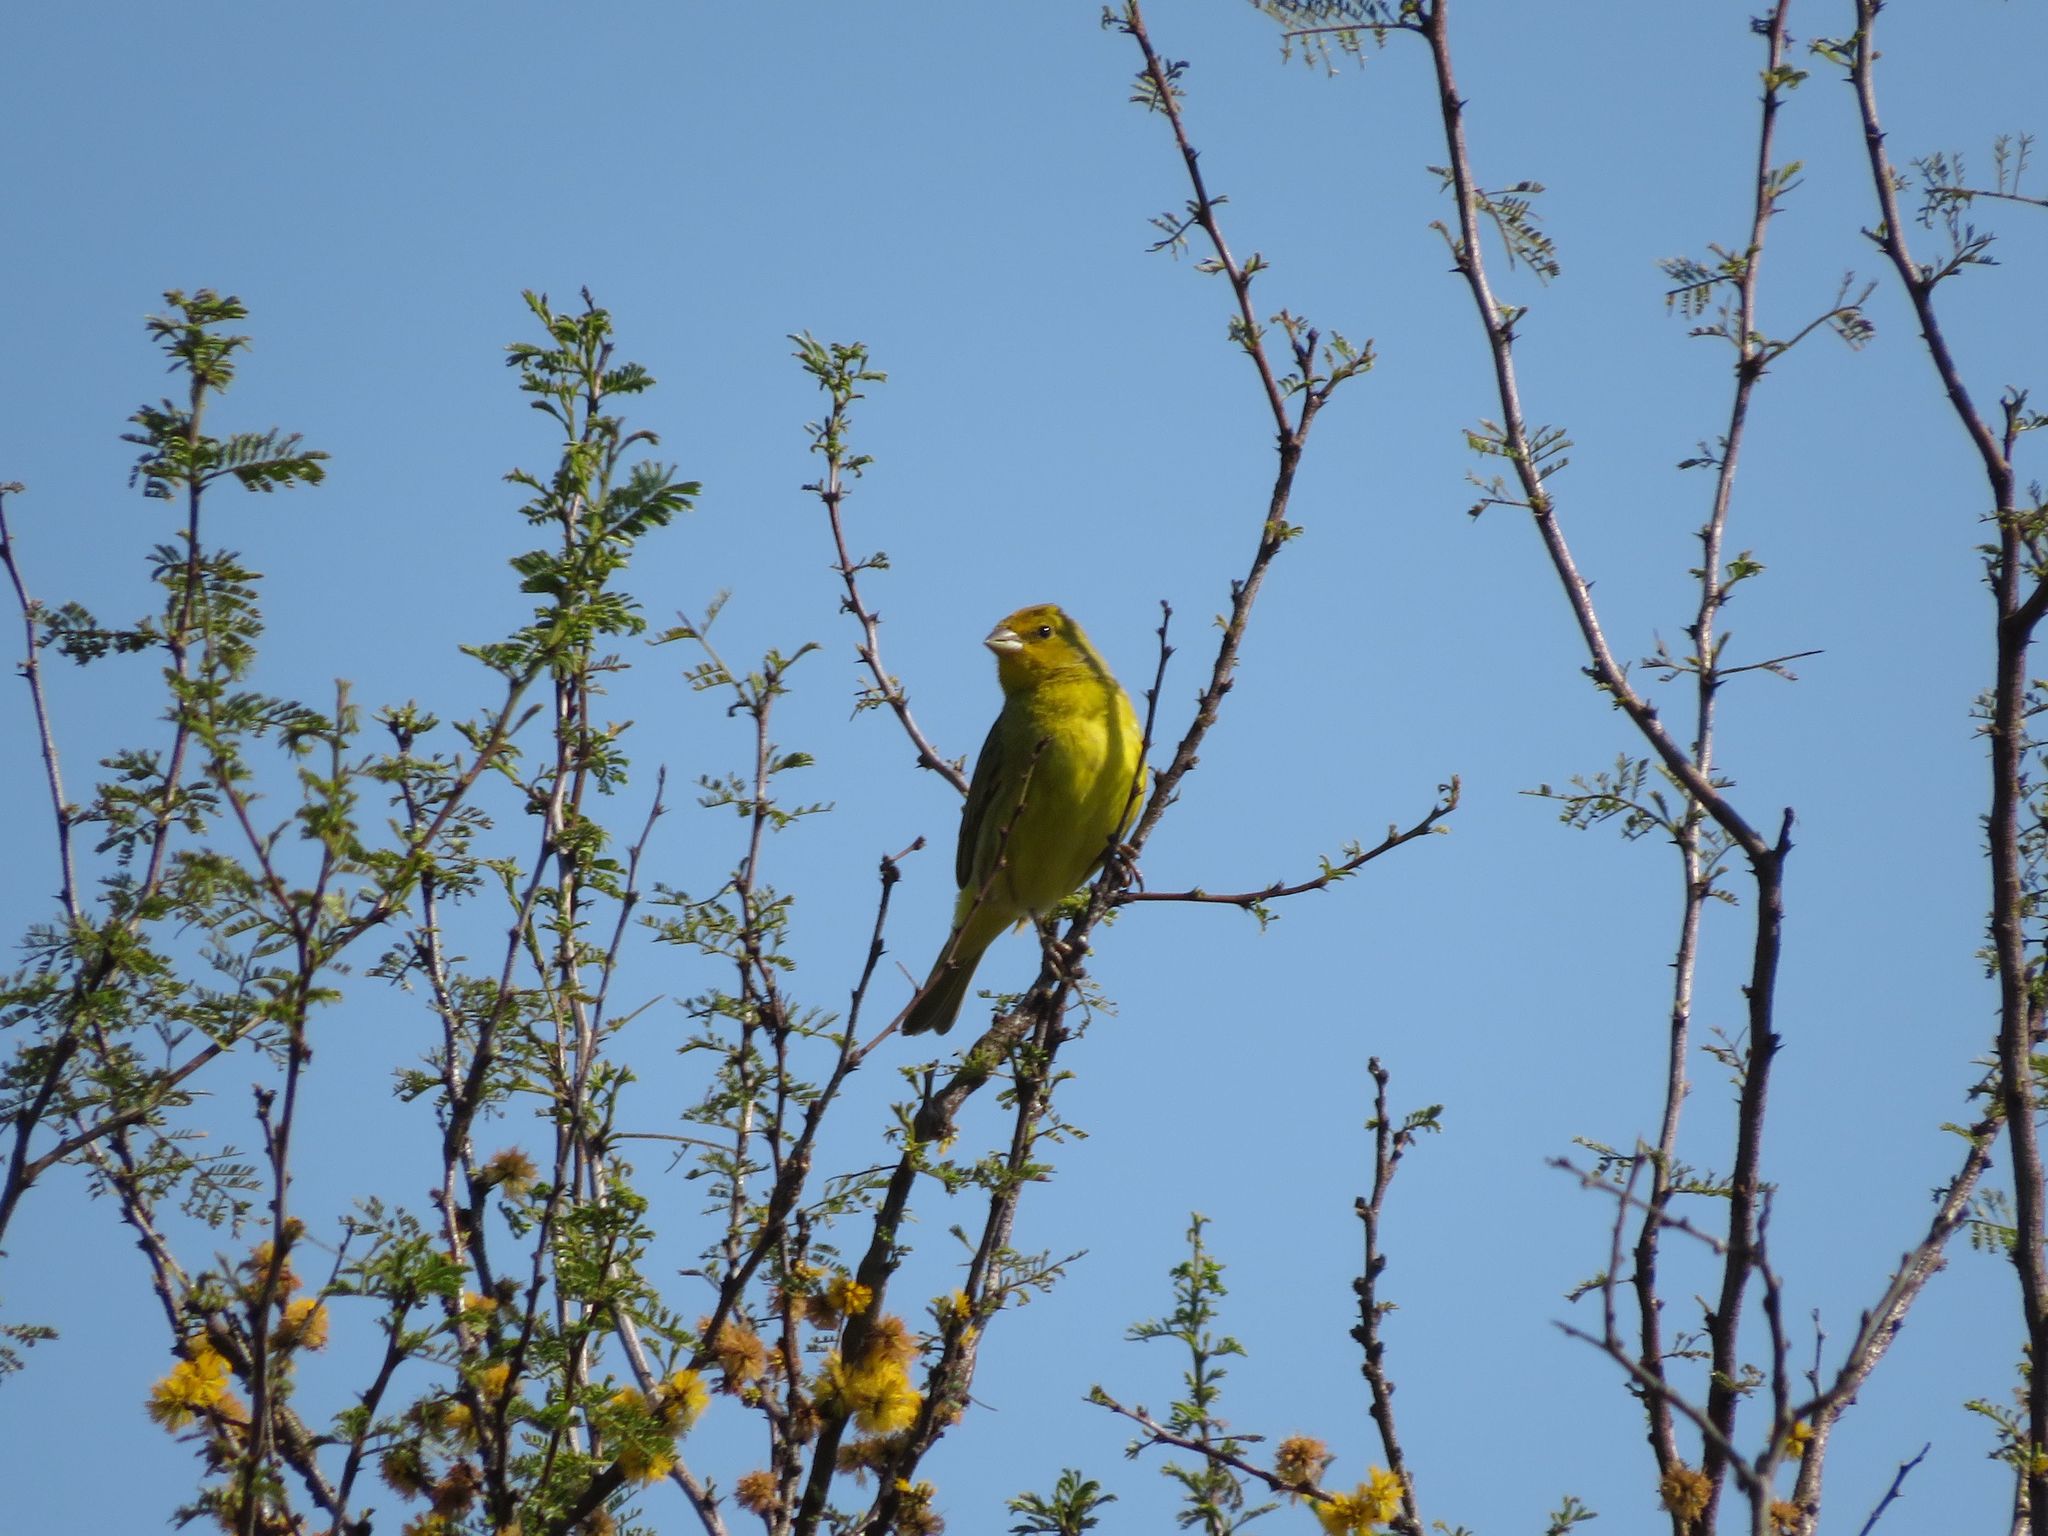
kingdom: Animalia
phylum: Chordata
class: Aves
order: Passeriformes
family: Thraupidae
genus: Sicalis
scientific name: Sicalis flaveola
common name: Saffron finch
